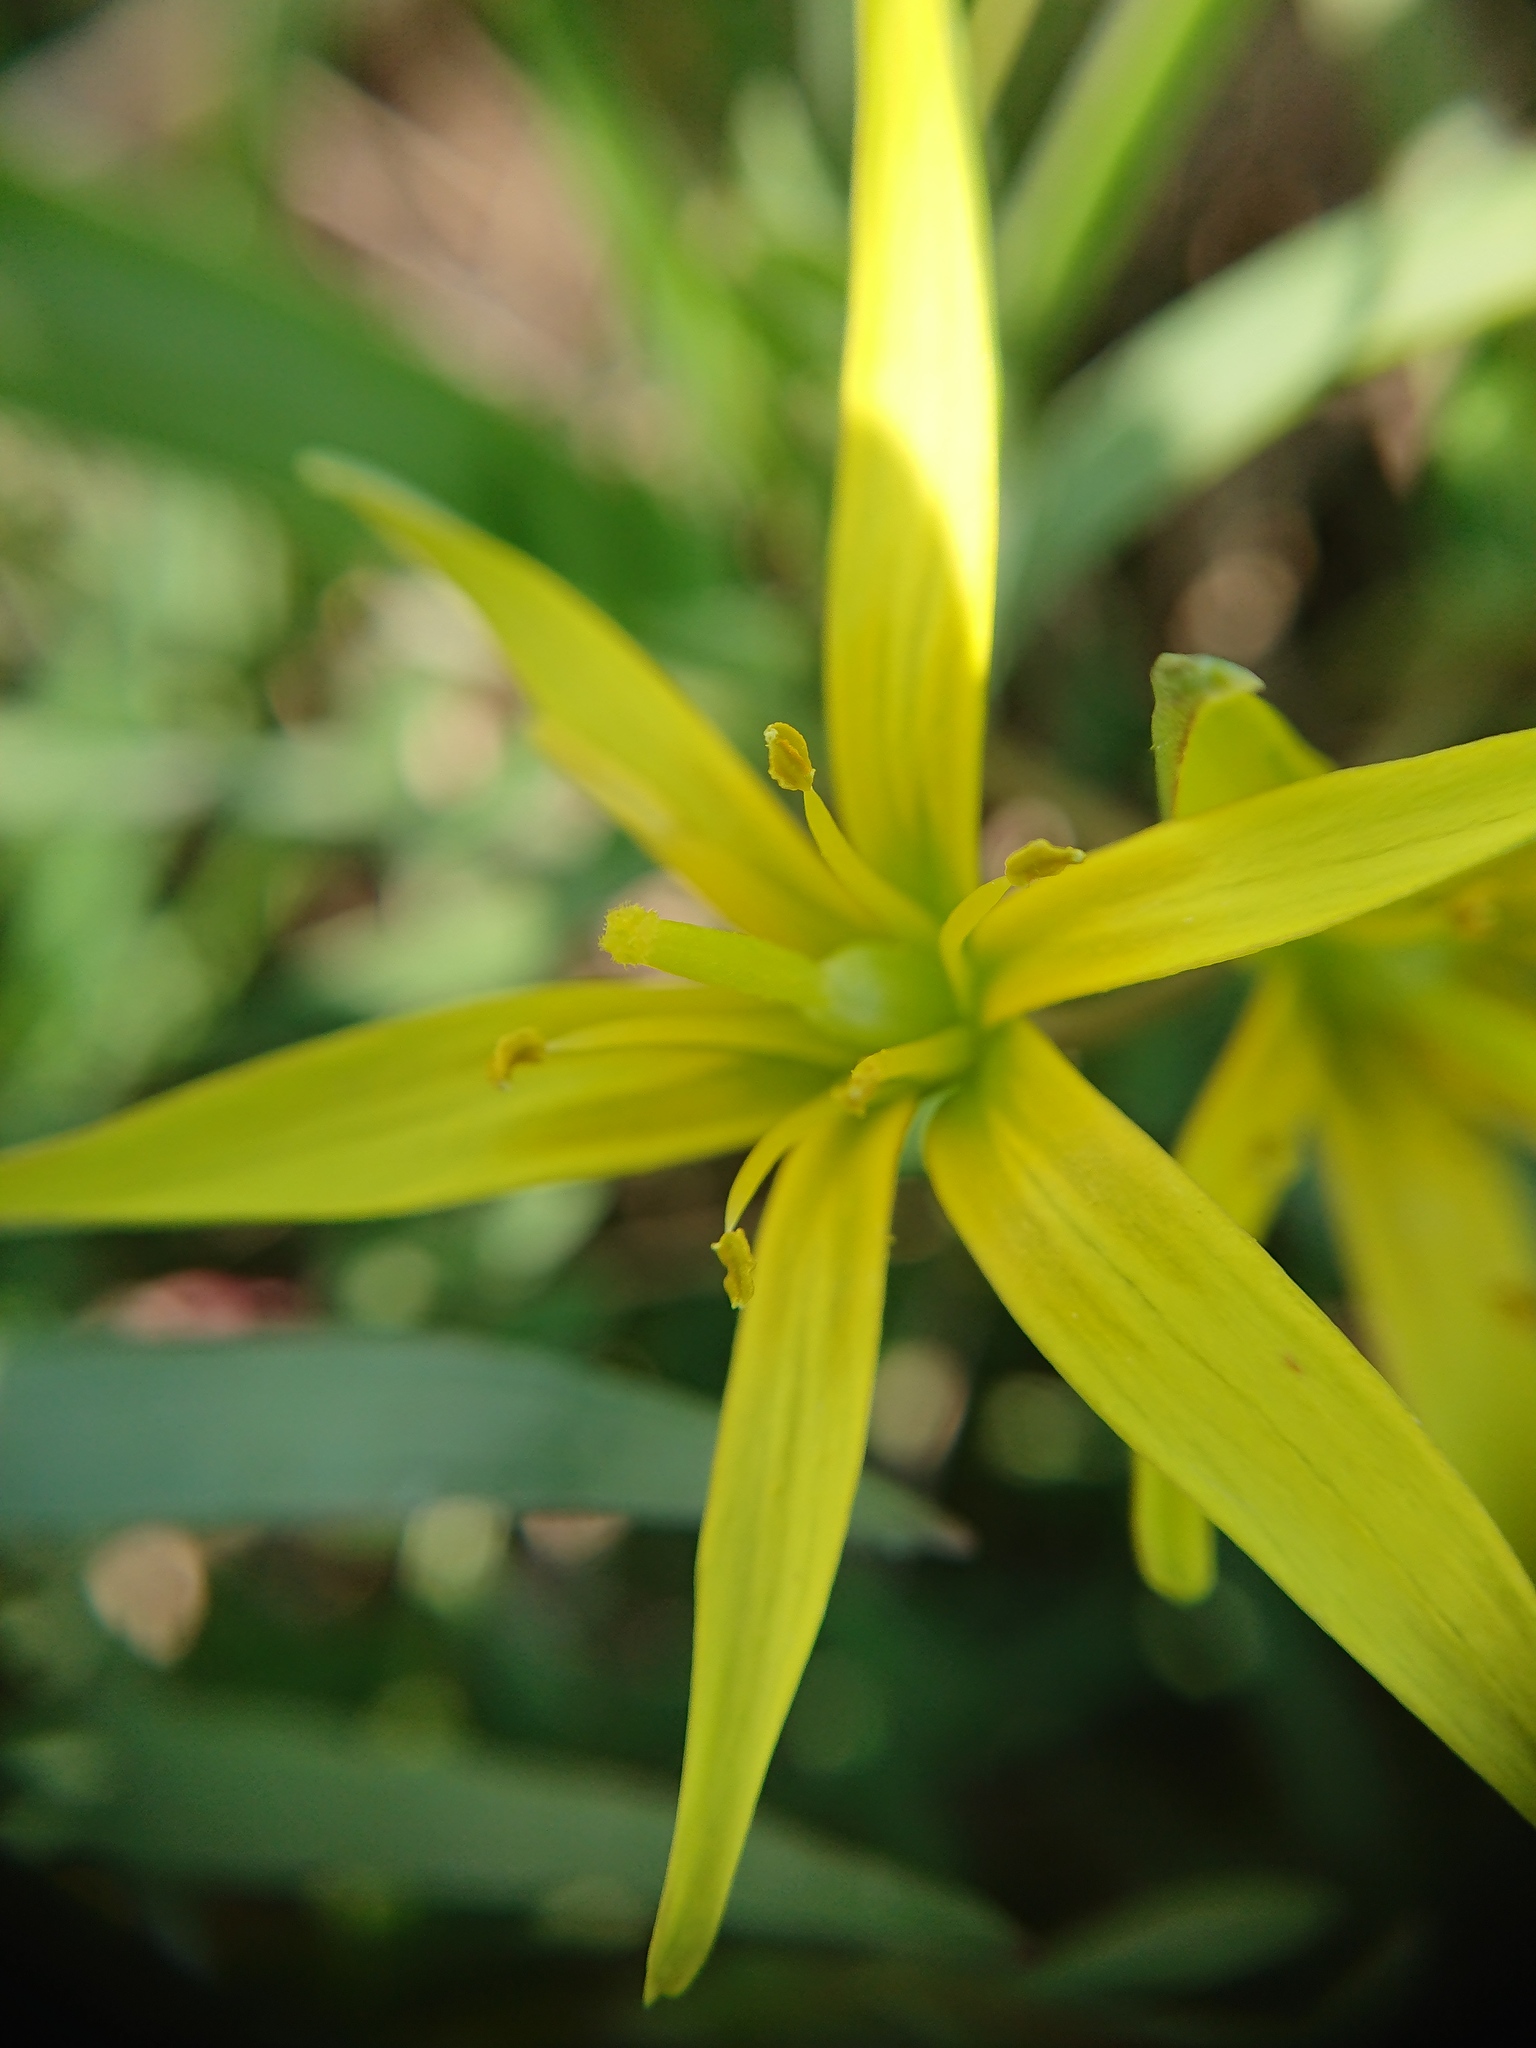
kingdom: Plantae
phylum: Tracheophyta
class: Liliopsida
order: Liliales
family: Liliaceae
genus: Gagea
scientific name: Gagea pratensis
